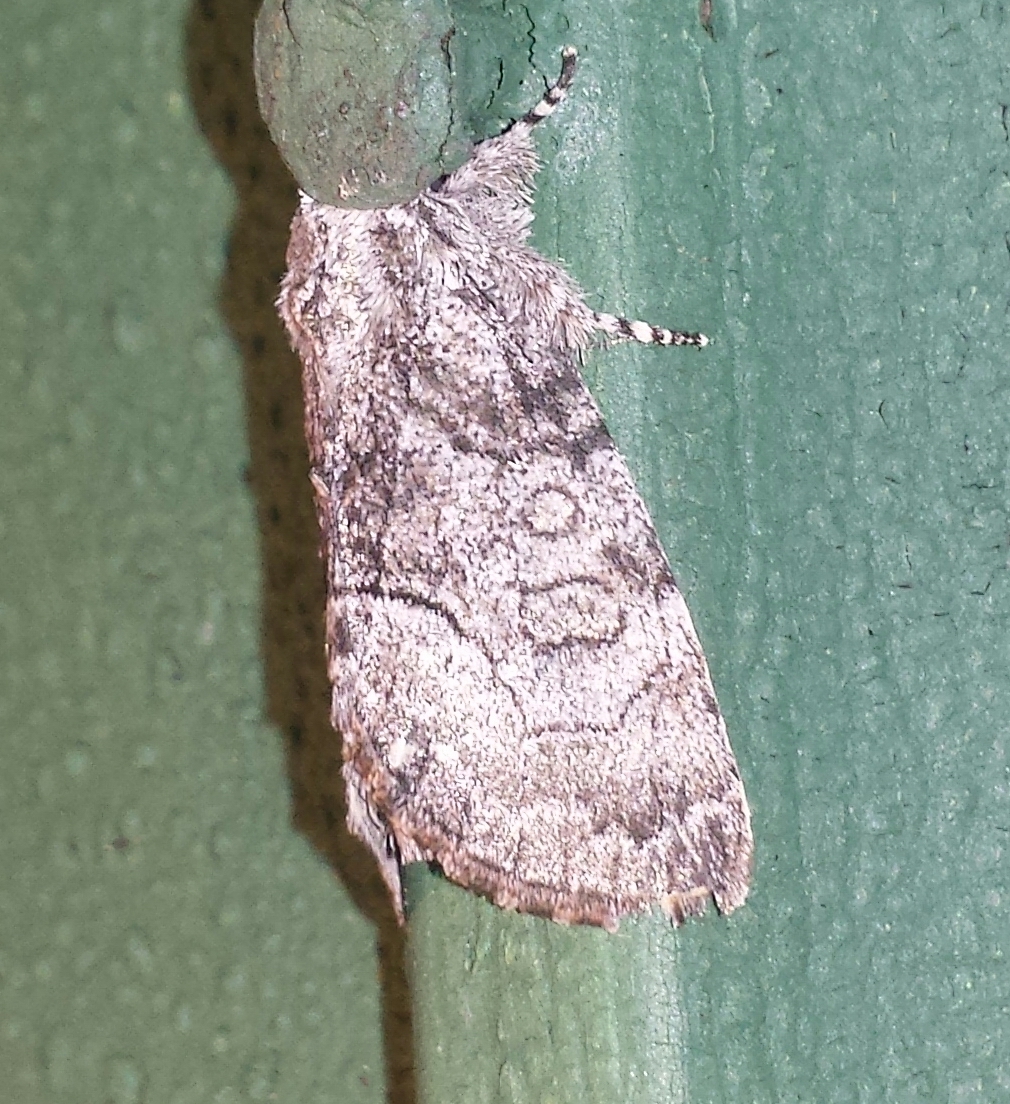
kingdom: Animalia
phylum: Arthropoda
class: Insecta
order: Lepidoptera
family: Noctuidae
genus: Raphia
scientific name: Raphia frater
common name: Brother
